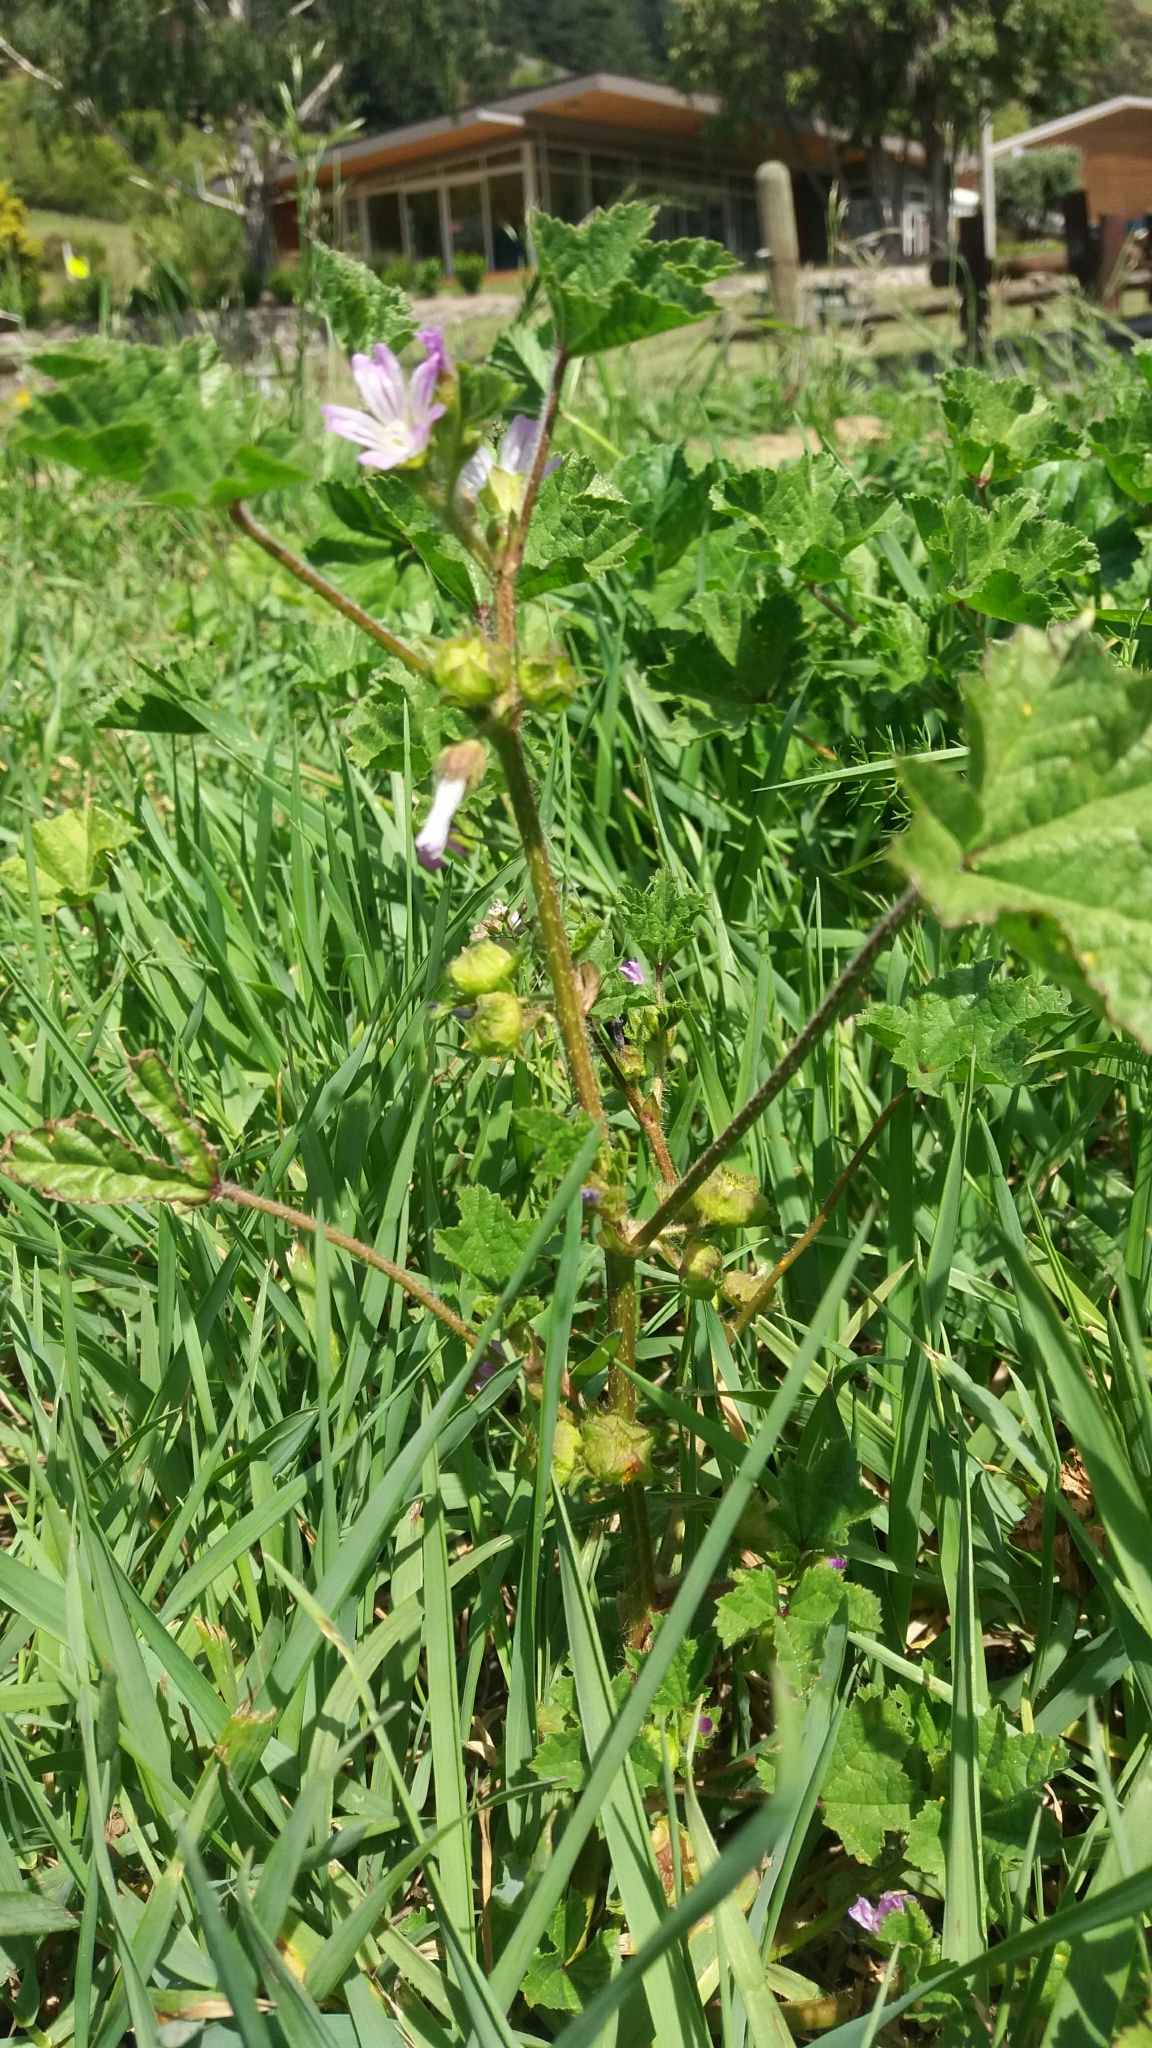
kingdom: Plantae
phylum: Tracheophyta
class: Magnoliopsida
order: Geraniales
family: Geraniaceae
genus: Geranium
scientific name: Geranium molle
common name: Dove's-foot crane's-bill
